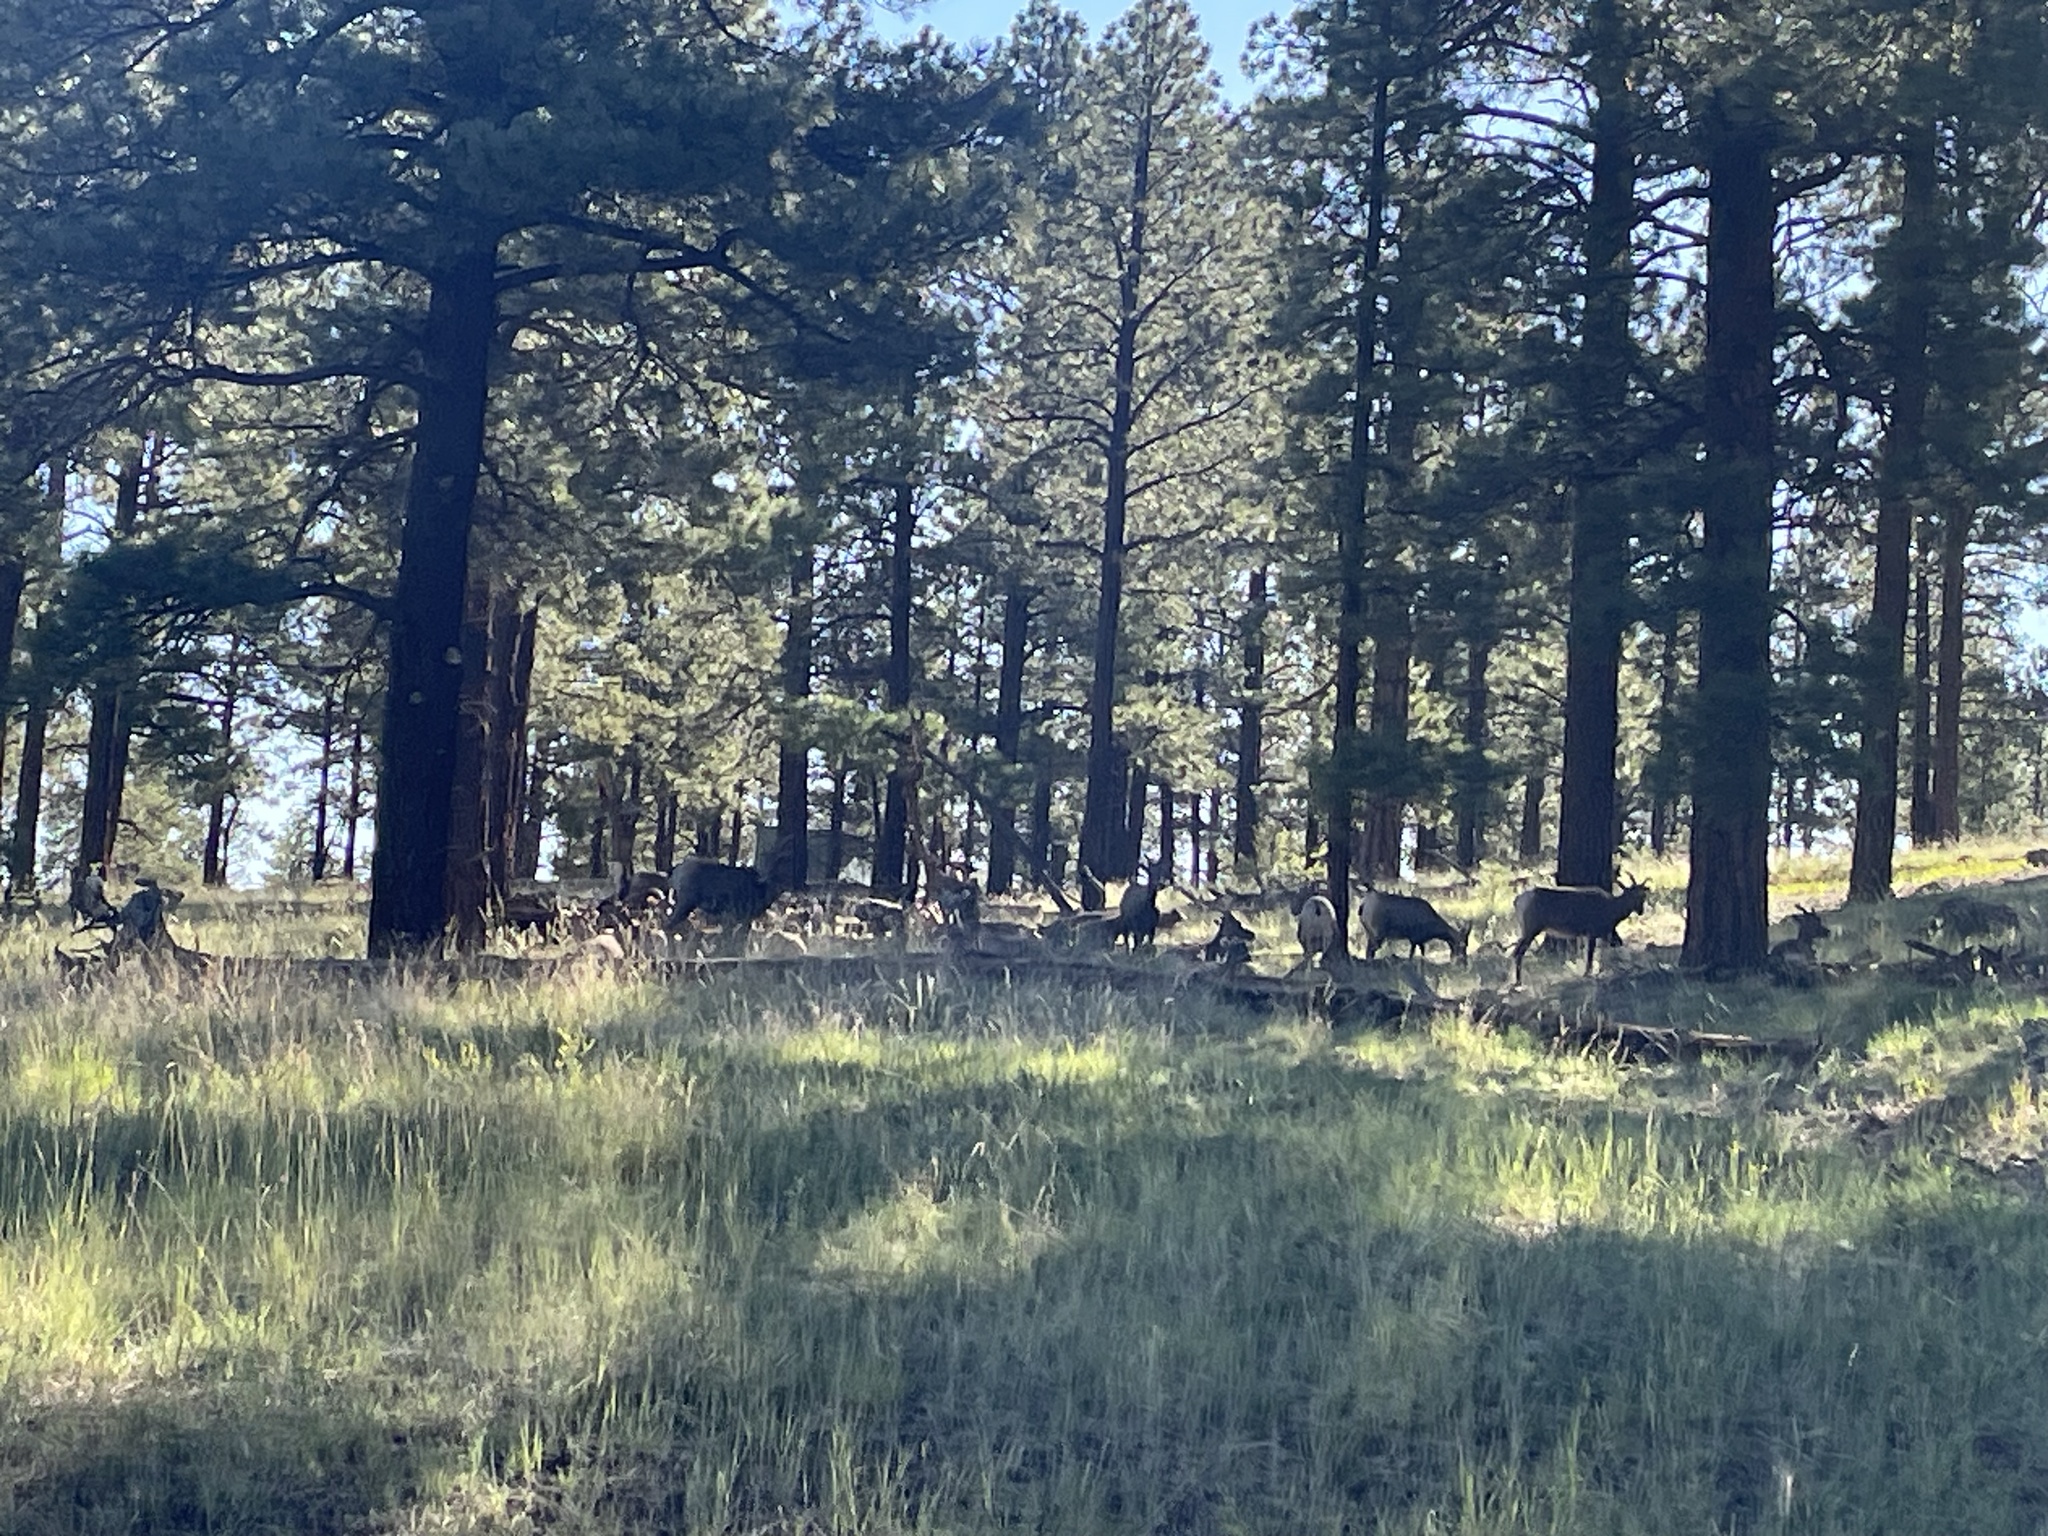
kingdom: Animalia
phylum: Chordata
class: Mammalia
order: Artiodactyla
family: Bovidae
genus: Ovis
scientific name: Ovis canadensis
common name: Bighorn sheep
